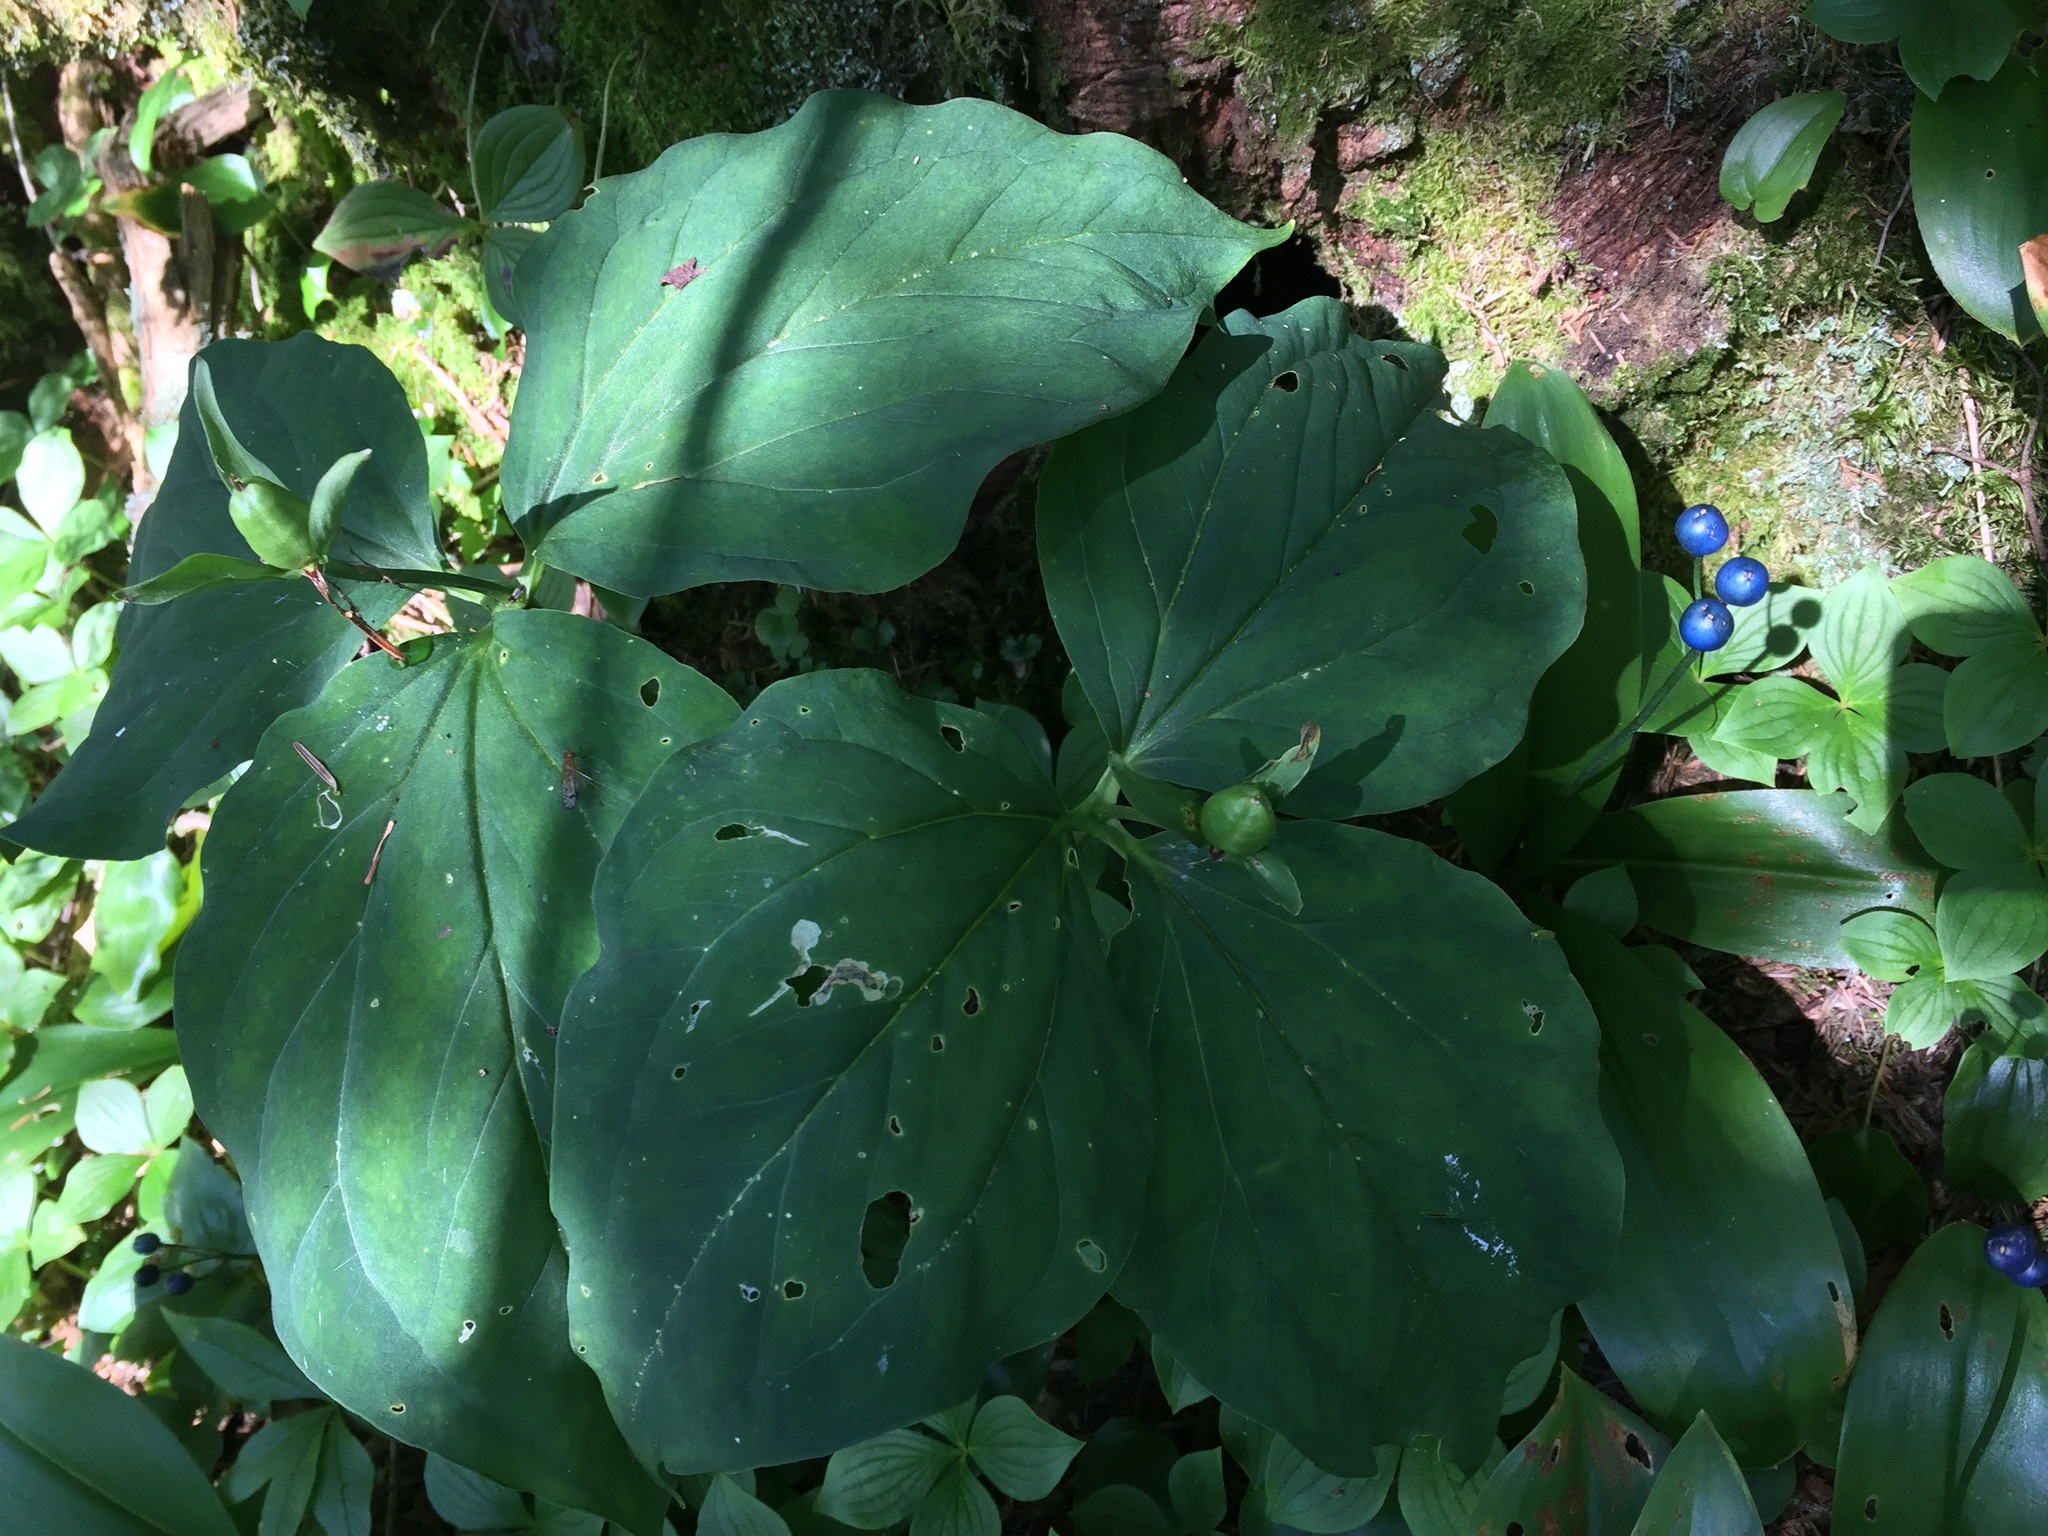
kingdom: Plantae
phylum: Tracheophyta
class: Liliopsida
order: Liliales
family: Melanthiaceae
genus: Trillium
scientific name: Trillium undulatum
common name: Paint trillium
